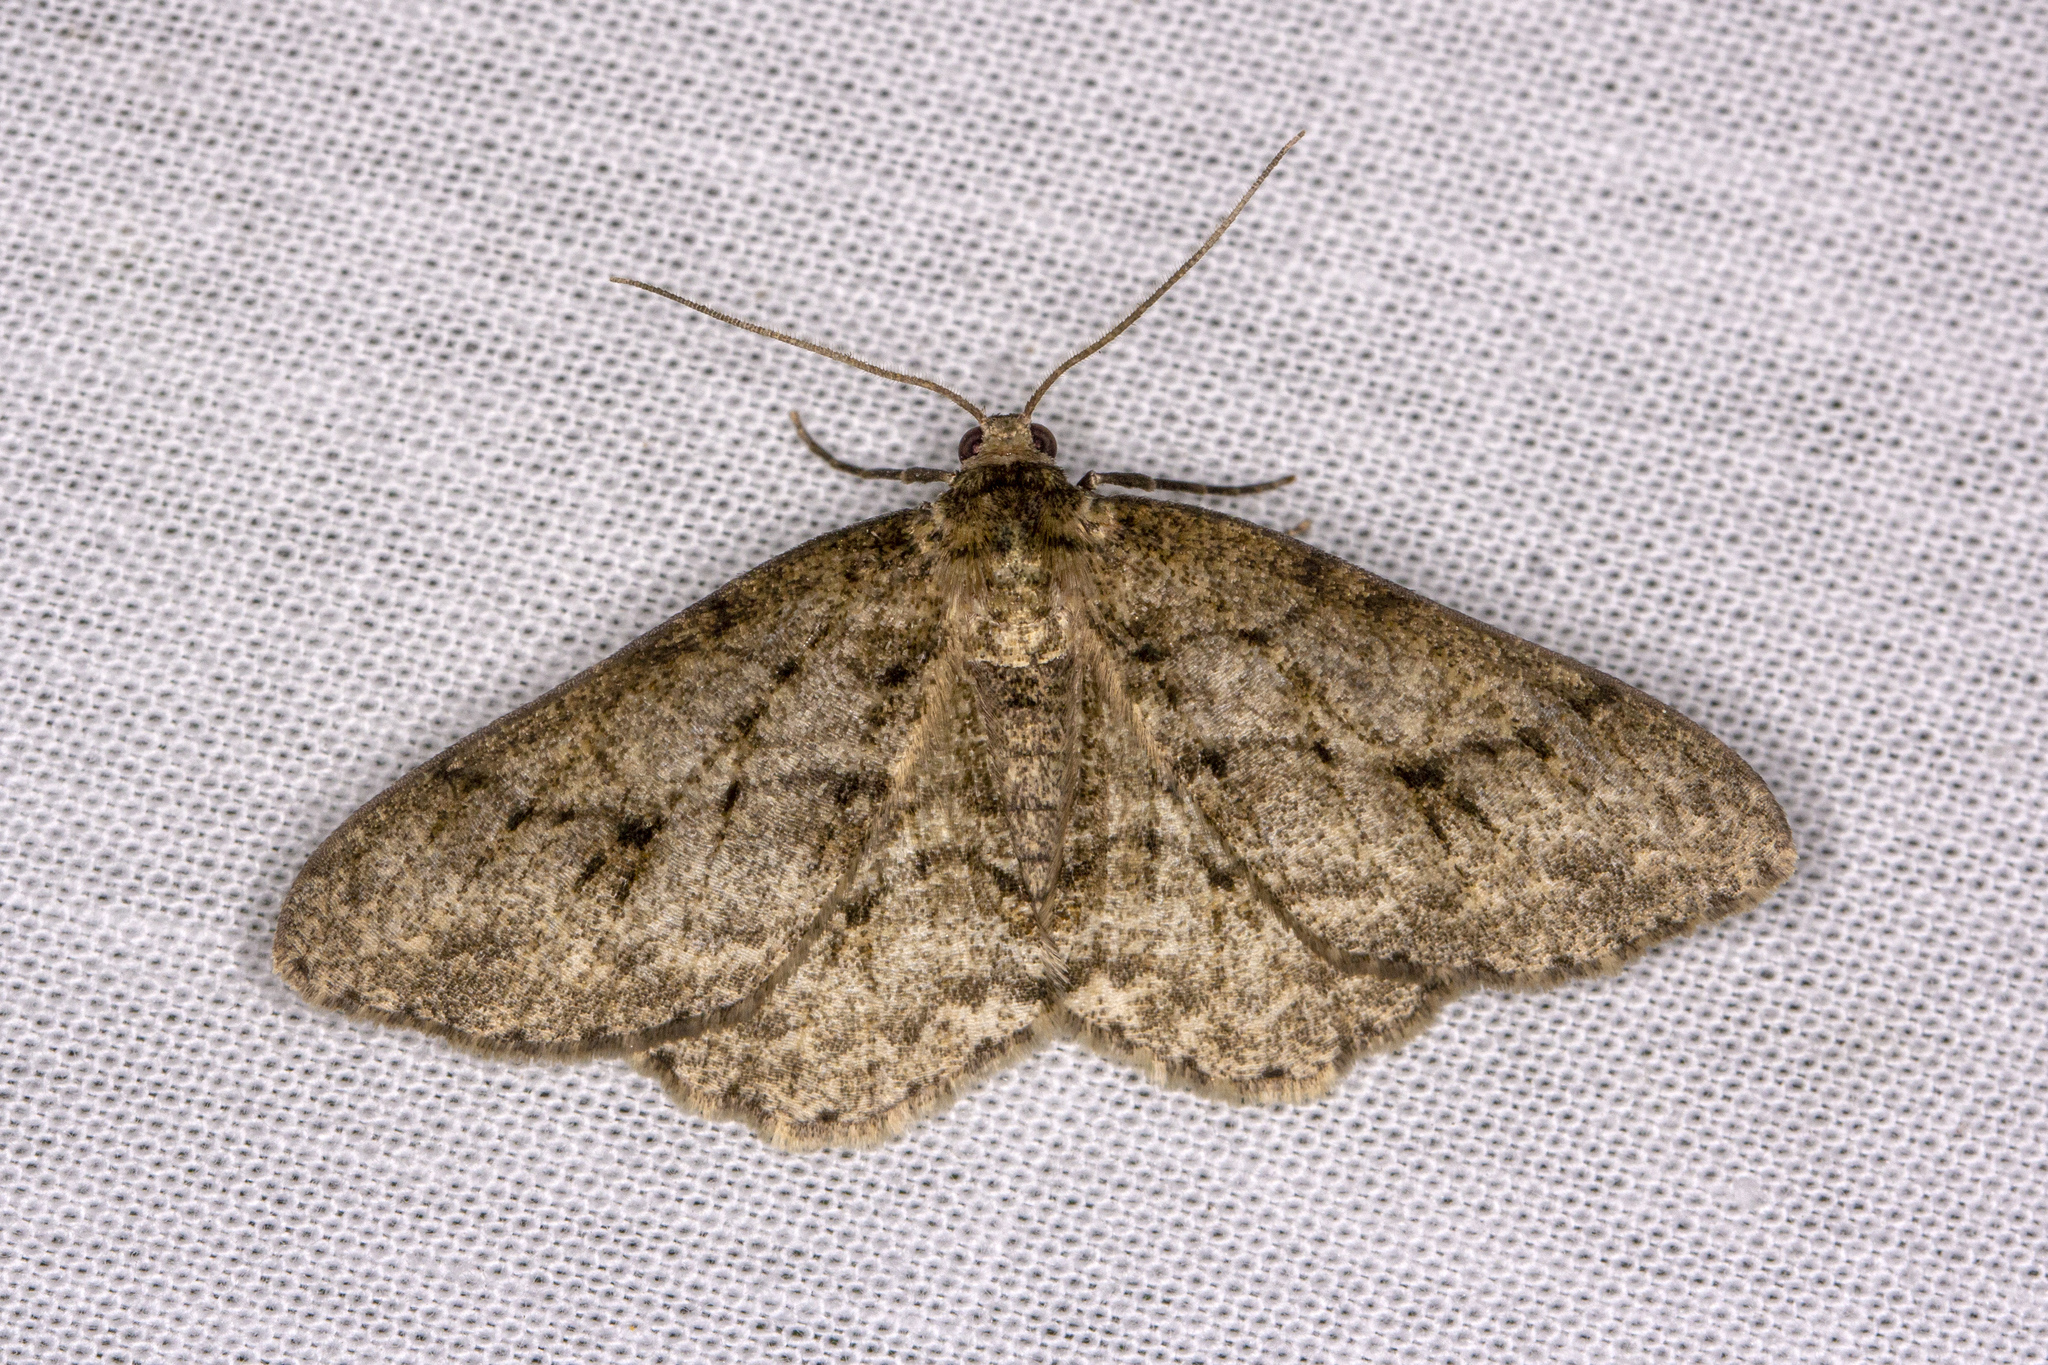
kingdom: Animalia
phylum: Arthropoda
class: Insecta
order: Lepidoptera
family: Geometridae
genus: Ectropis
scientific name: Ectropis crepuscularia
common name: Engrailed
